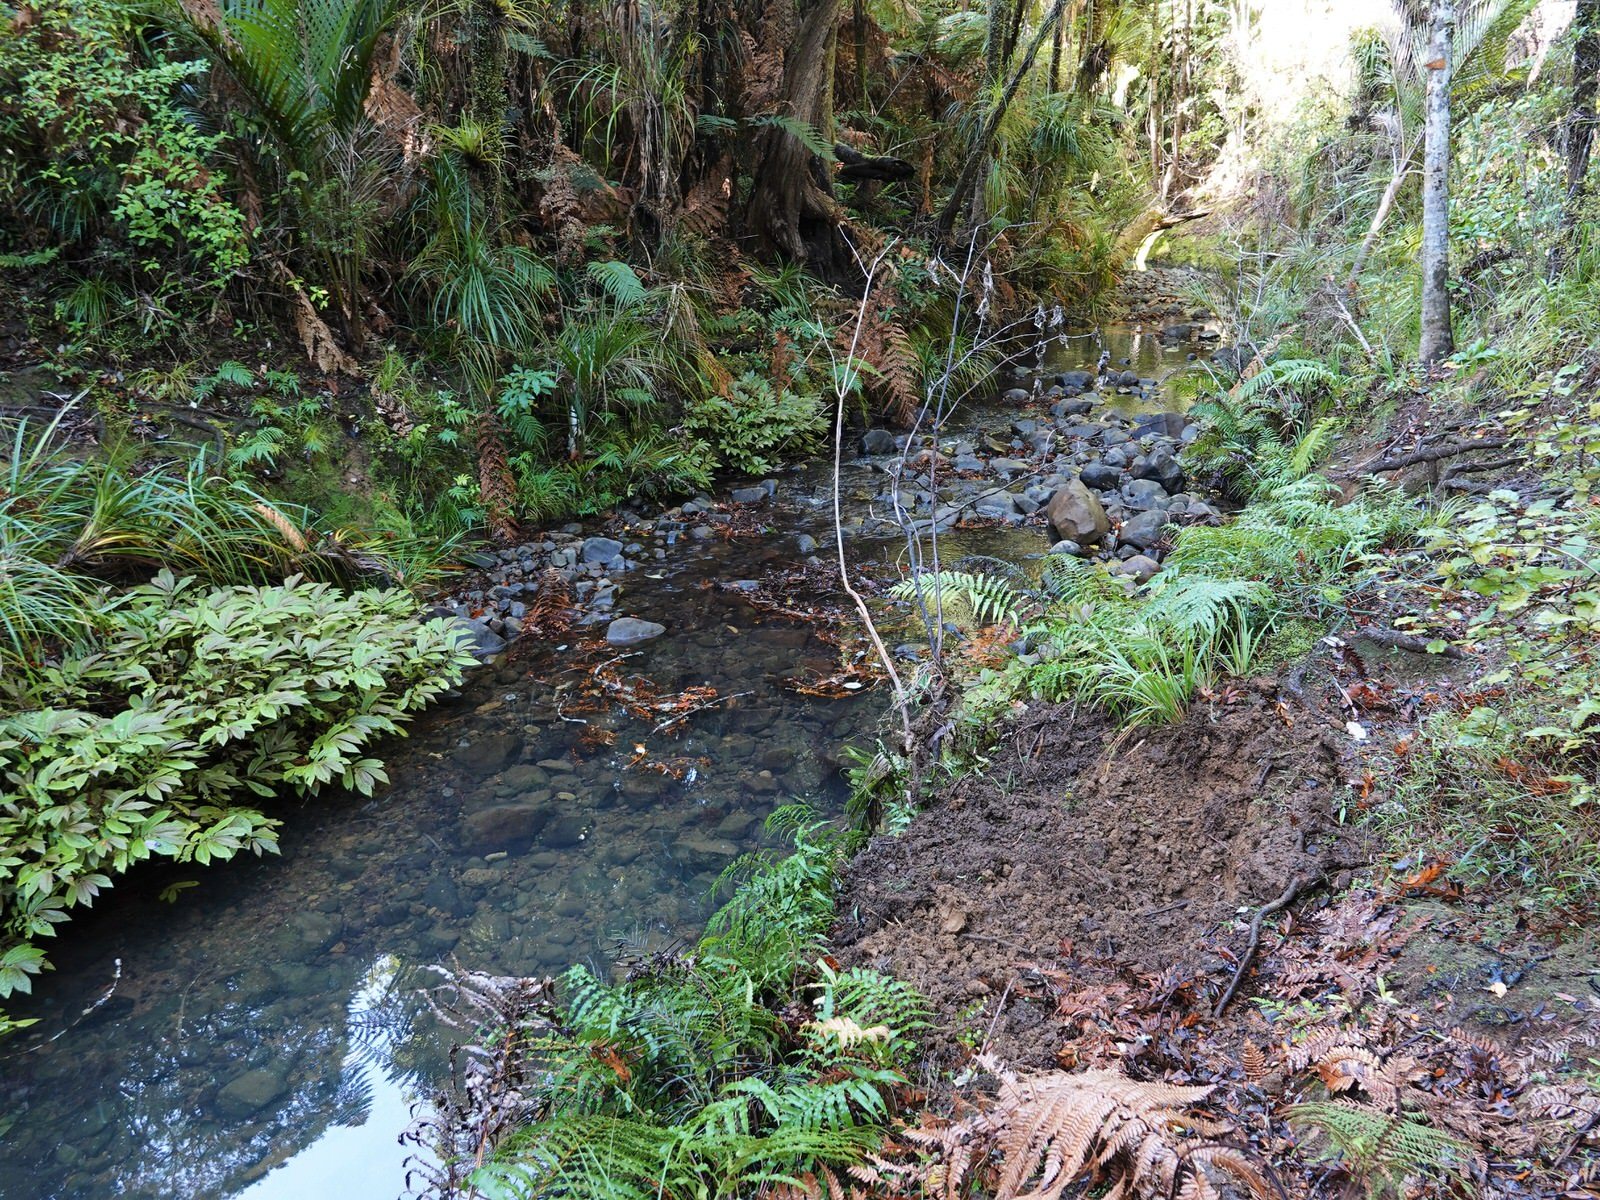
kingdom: Animalia
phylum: Chordata
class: Mammalia
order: Artiodactyla
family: Suidae
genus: Sus
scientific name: Sus scrofa
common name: Wild boar
